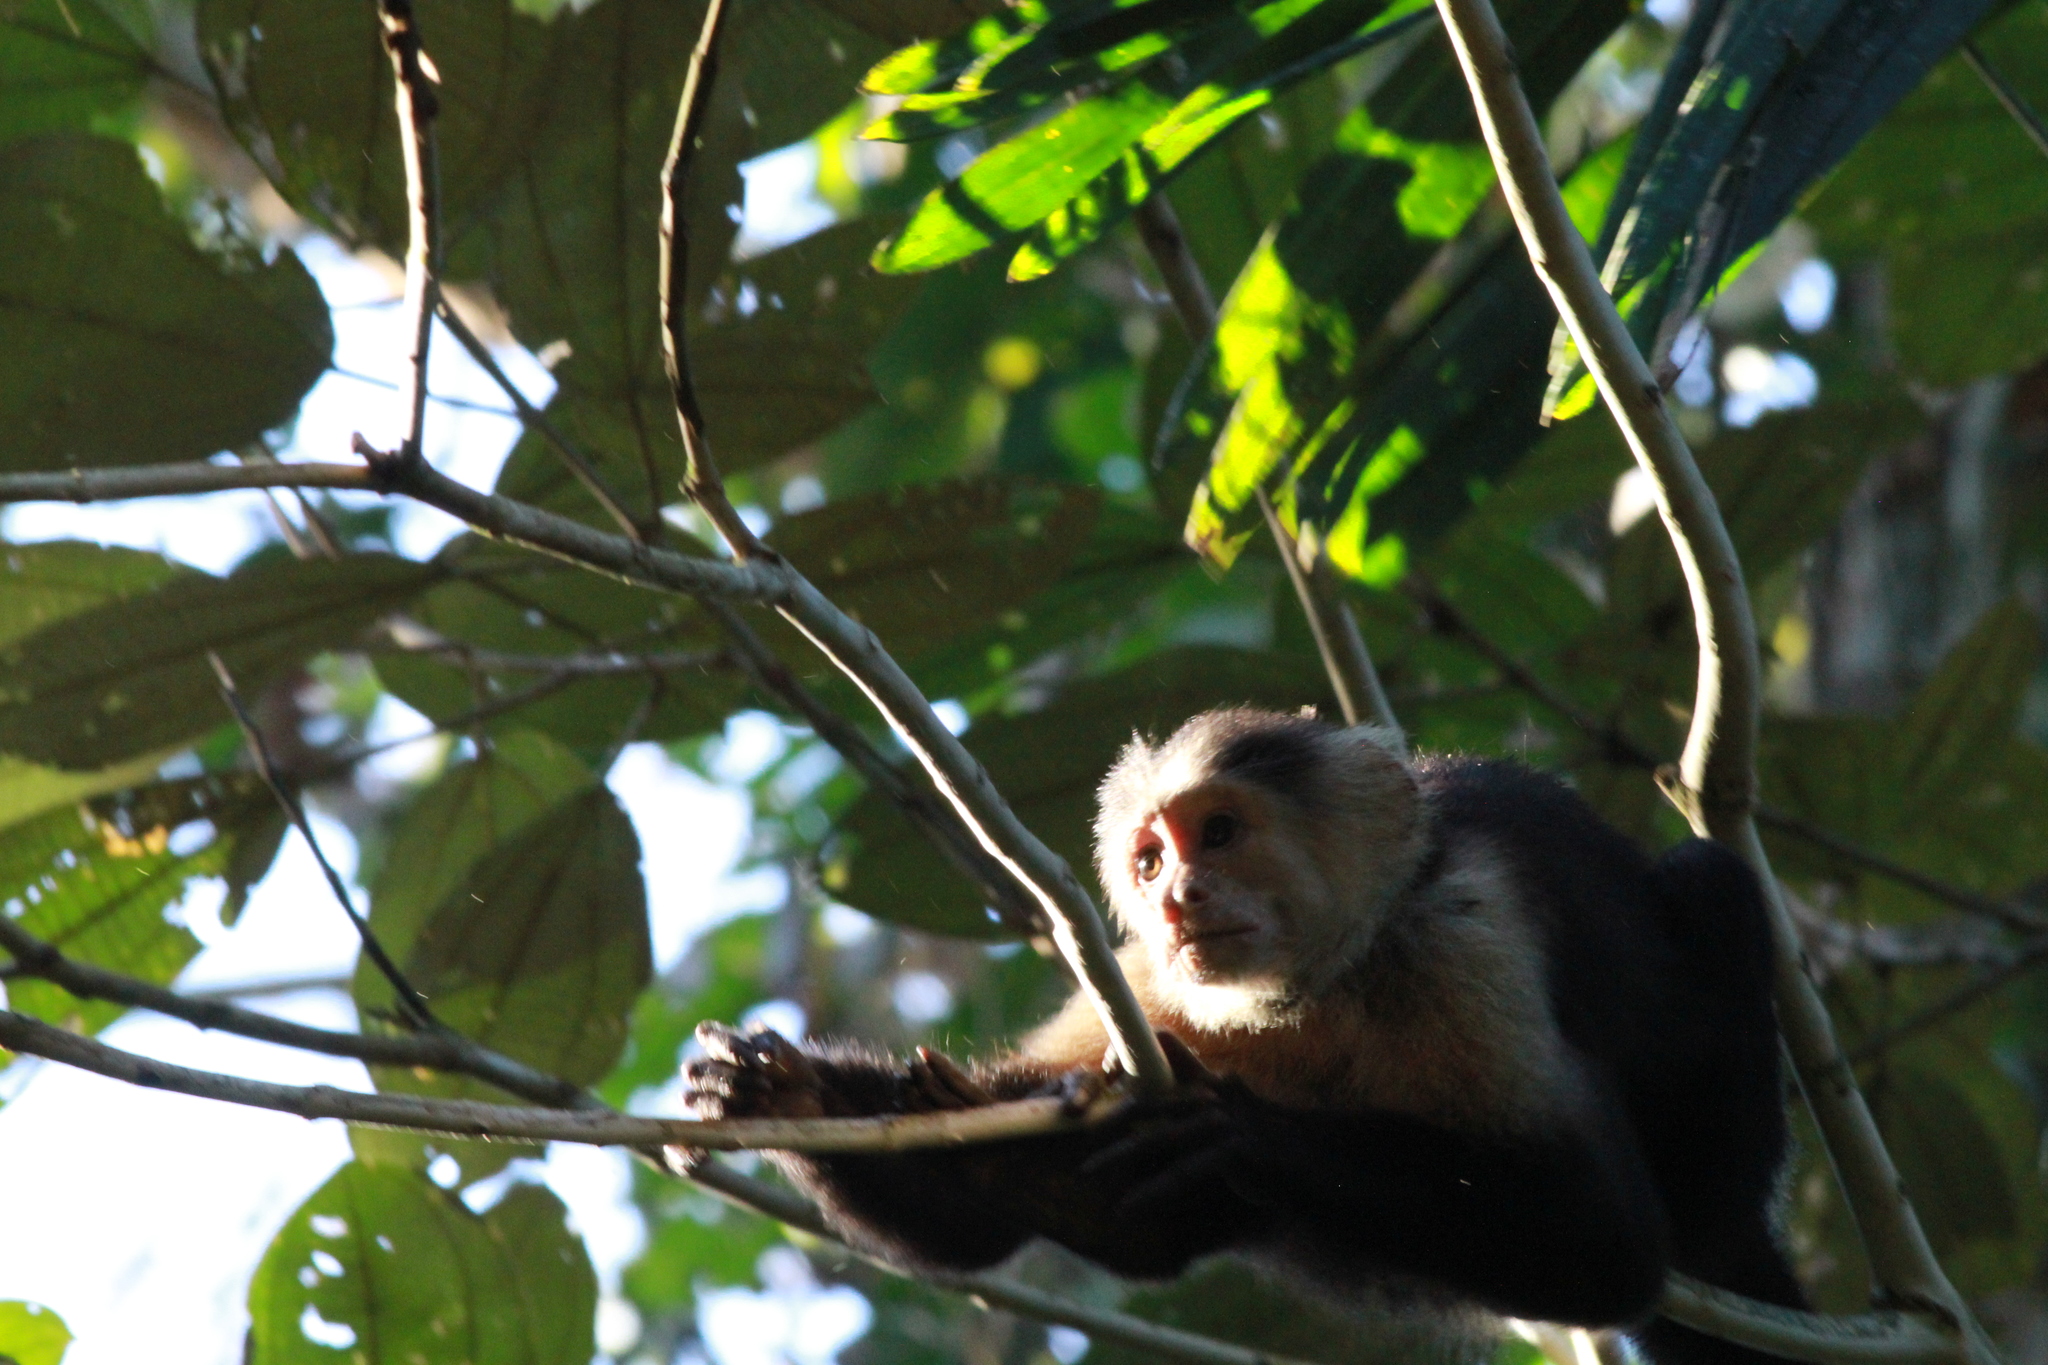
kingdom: Animalia
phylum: Chordata
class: Mammalia
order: Primates
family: Cebidae
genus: Cebus
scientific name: Cebus imitator
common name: Panamanian white-faced capuchin
